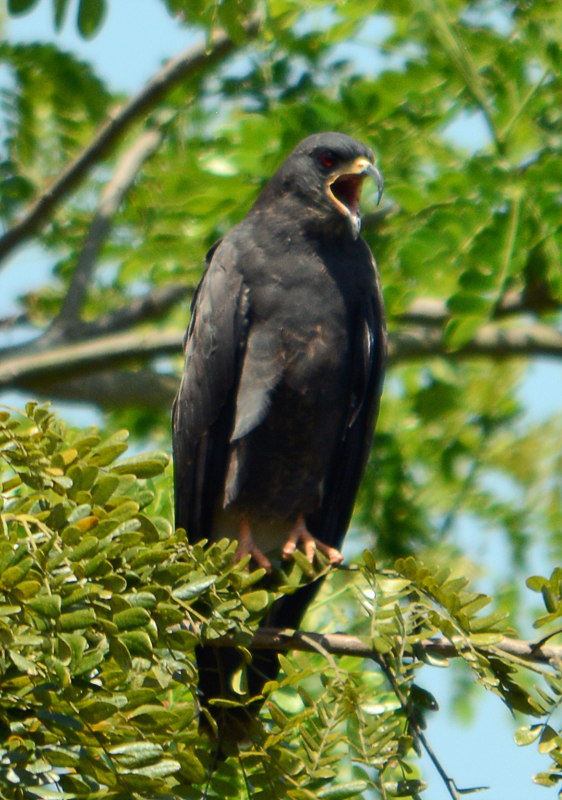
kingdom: Animalia
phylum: Chordata
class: Aves
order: Accipitriformes
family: Accipitridae
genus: Rostrhamus
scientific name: Rostrhamus sociabilis
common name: Snail kite
